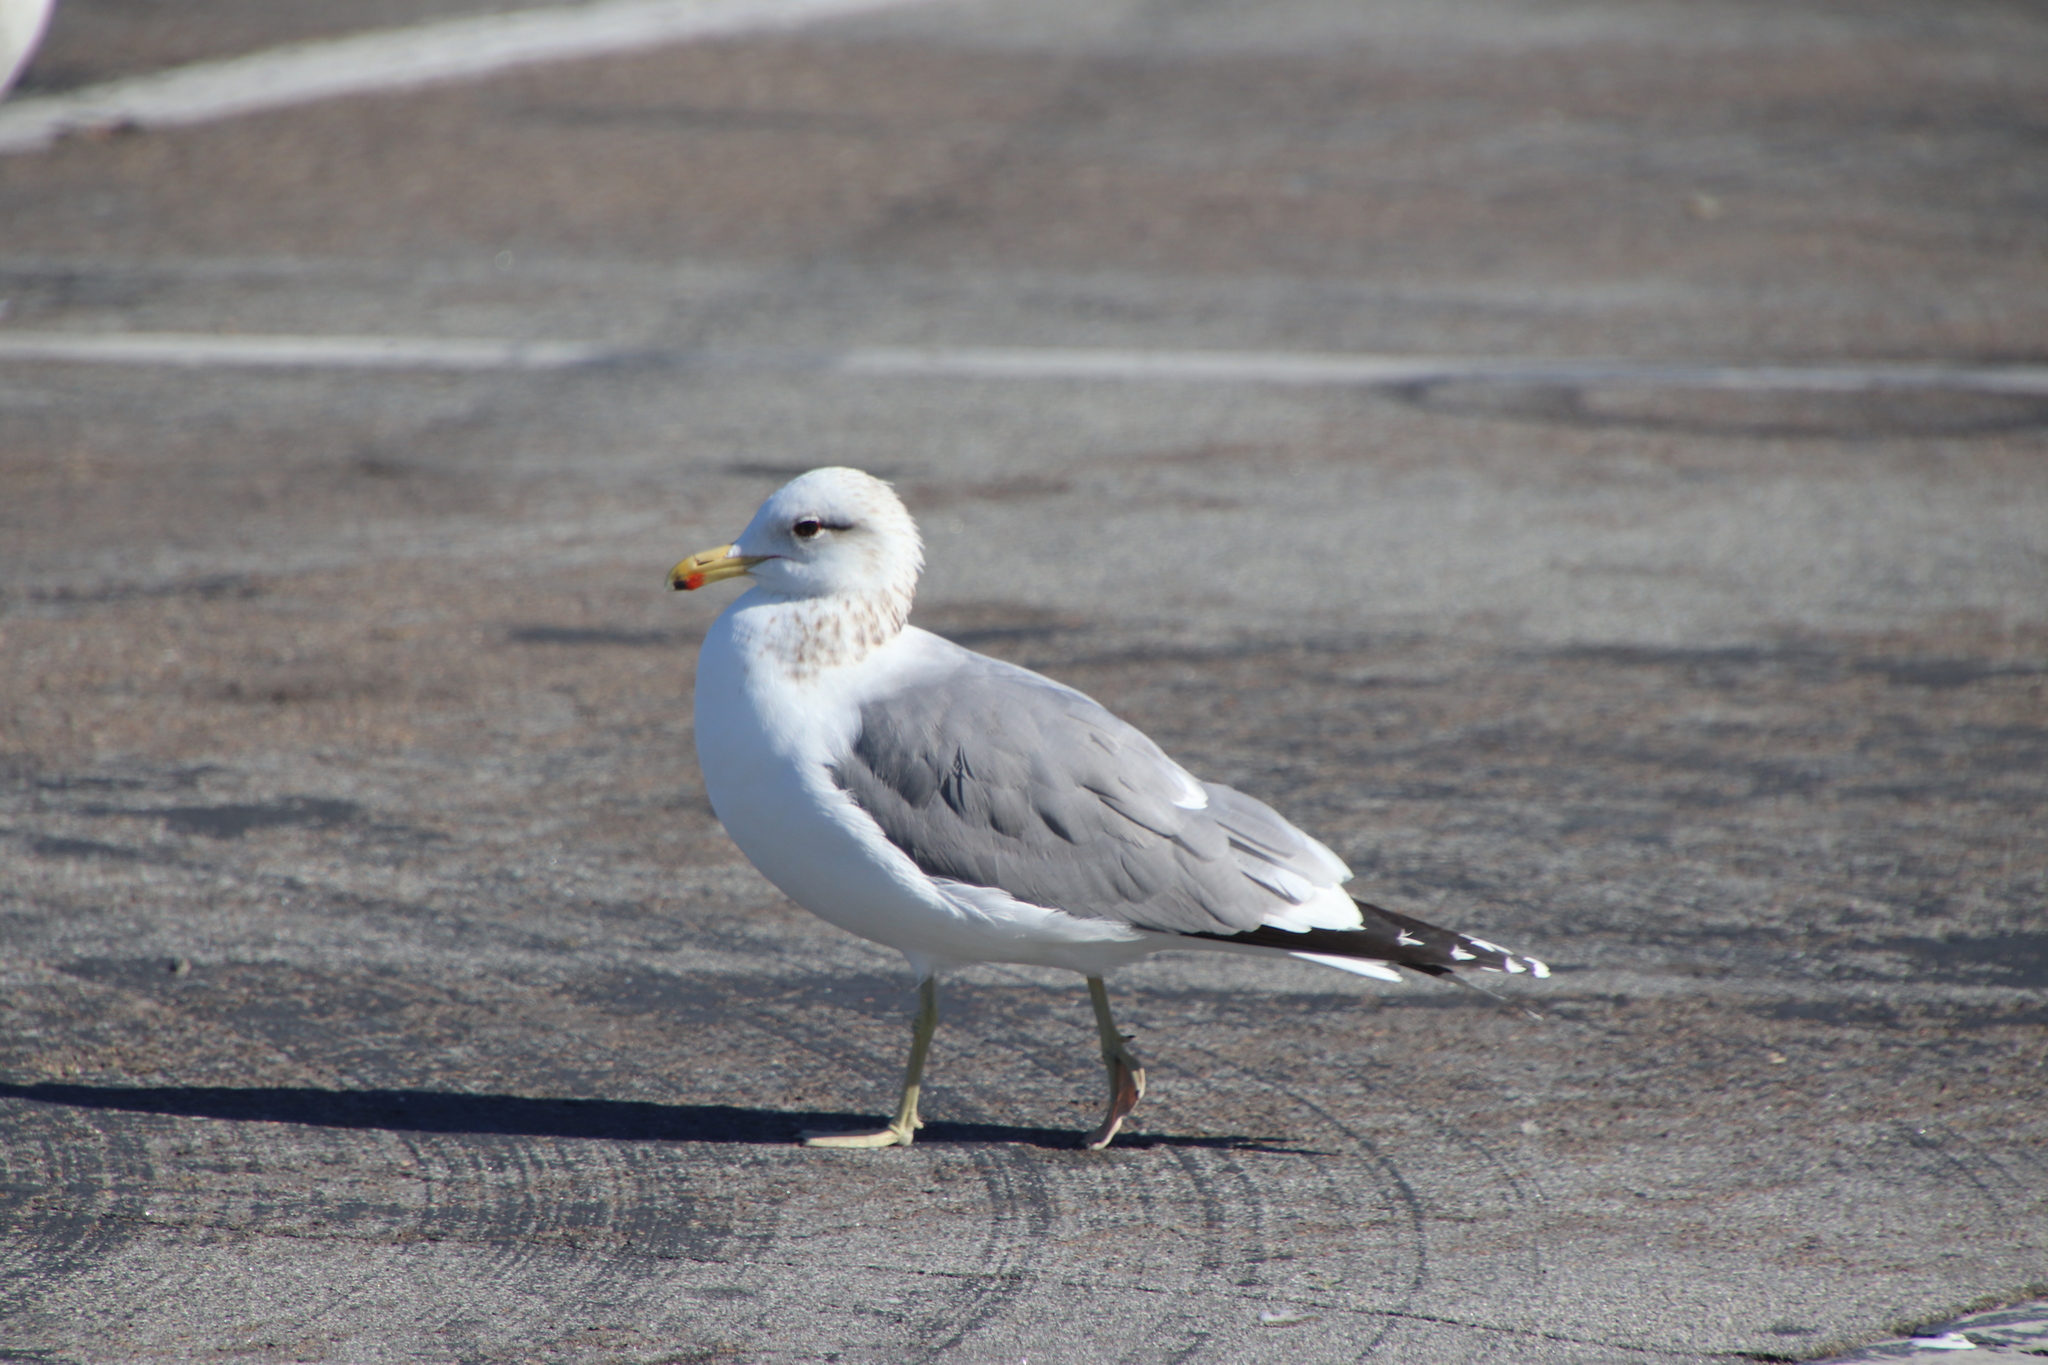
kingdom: Animalia
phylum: Chordata
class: Aves
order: Charadriiformes
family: Laridae
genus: Larus
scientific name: Larus californicus
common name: California gull
